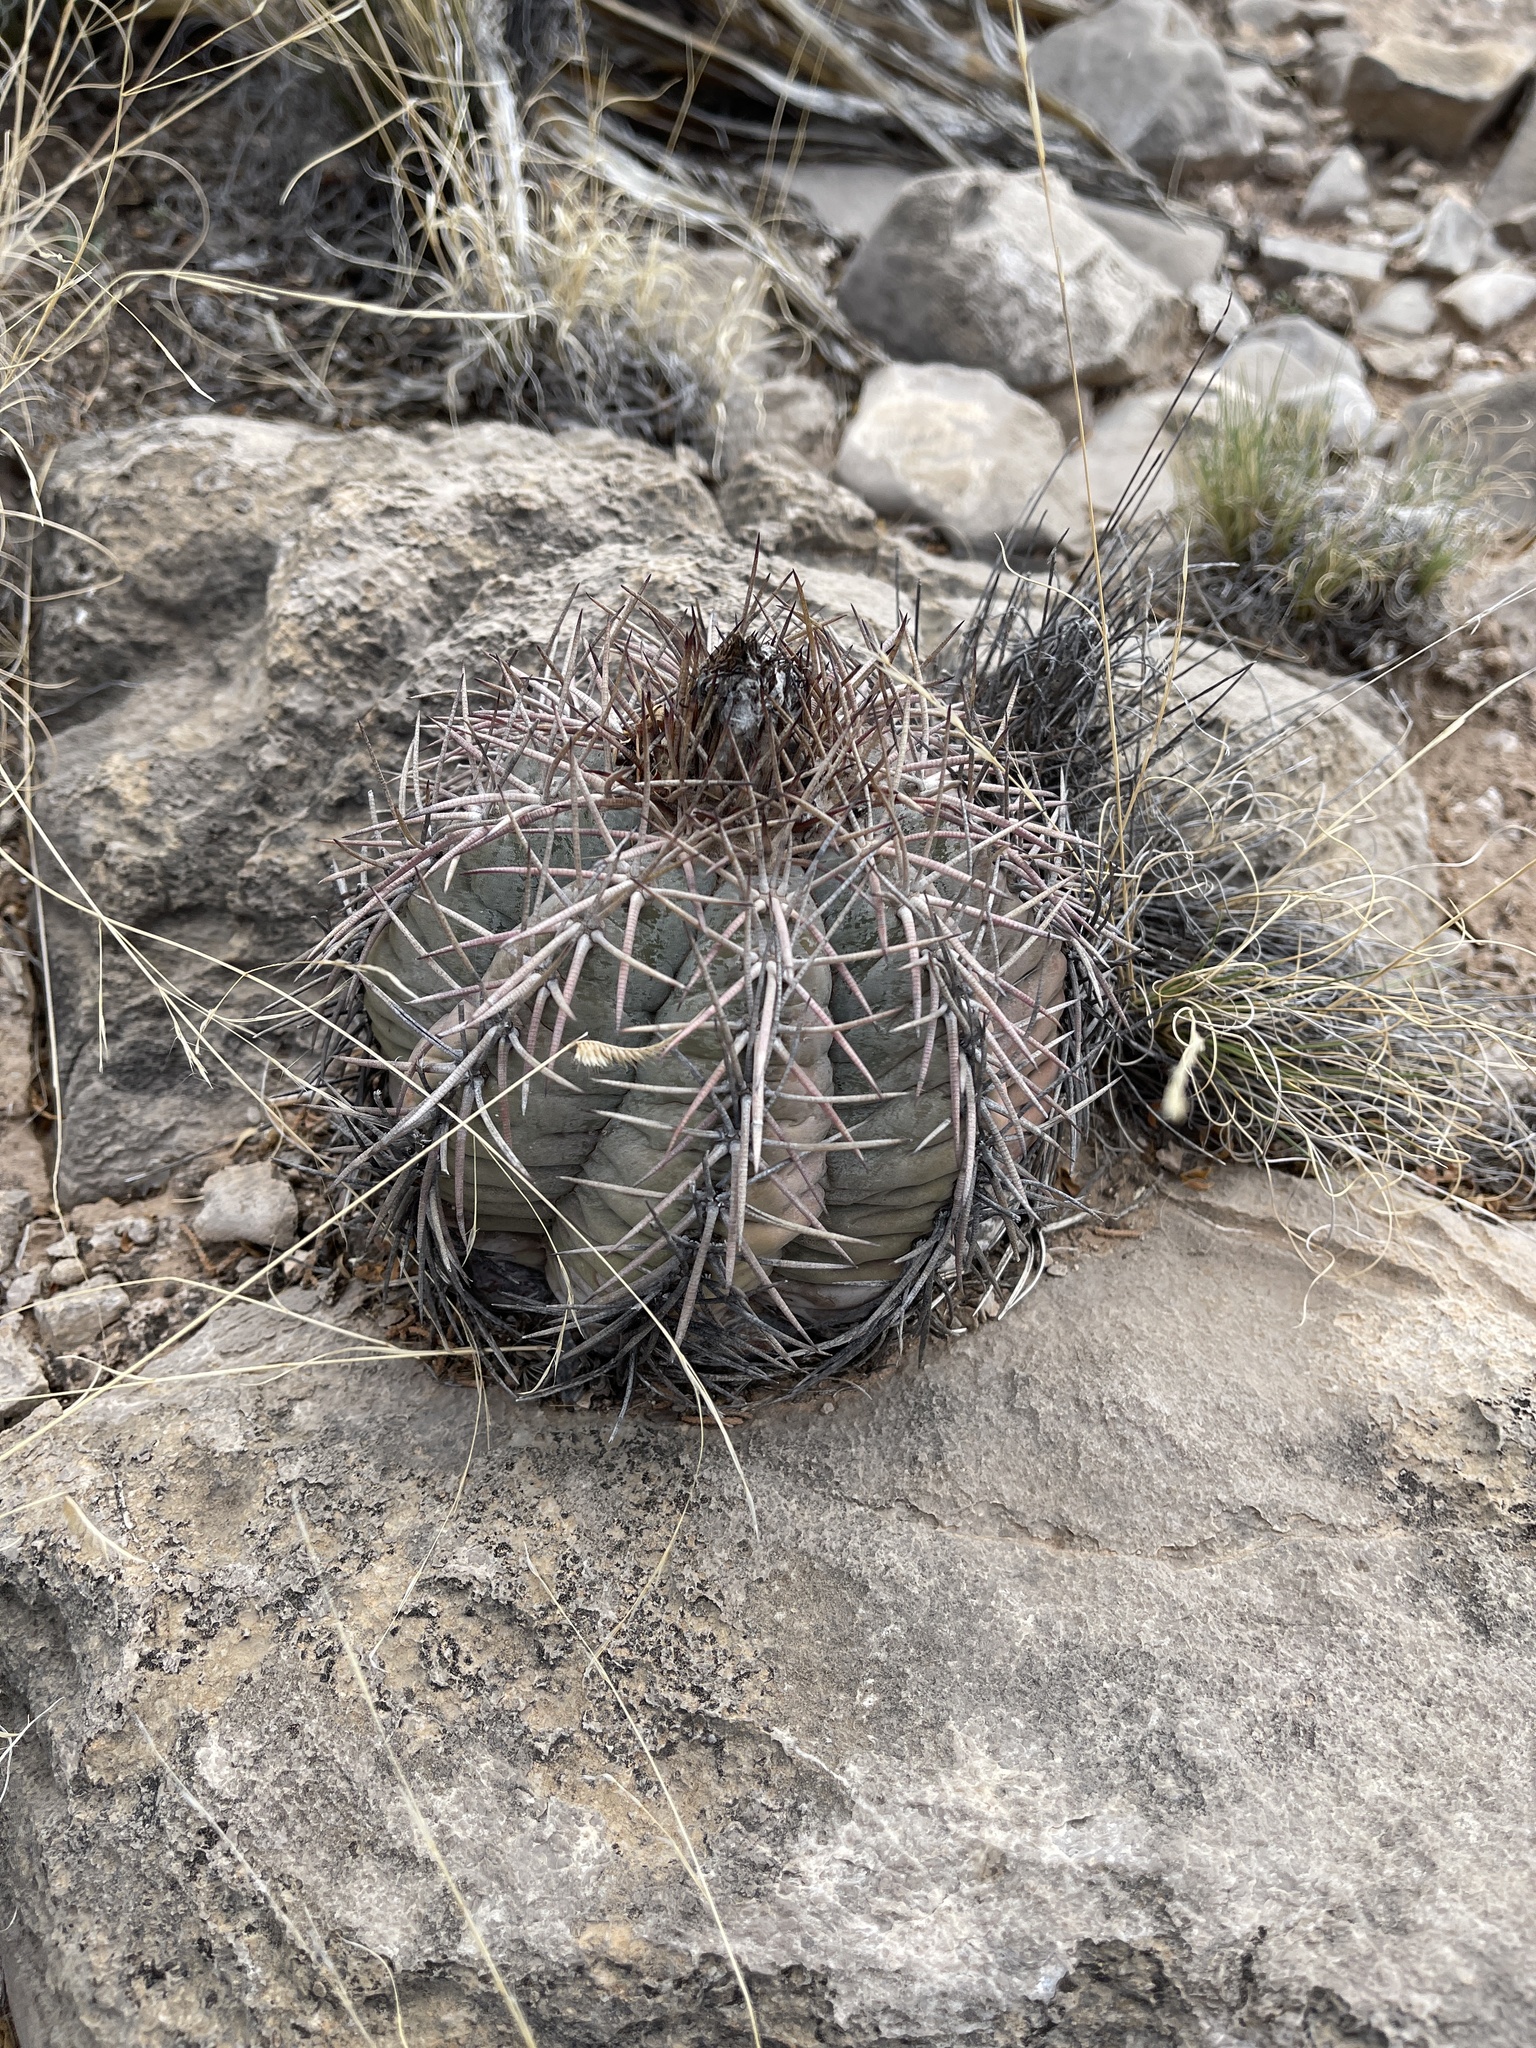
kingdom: Plantae
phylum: Tracheophyta
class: Magnoliopsida
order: Caryophyllales
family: Cactaceae
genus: Echinocactus
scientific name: Echinocactus horizonthalonius
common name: Devilshead
